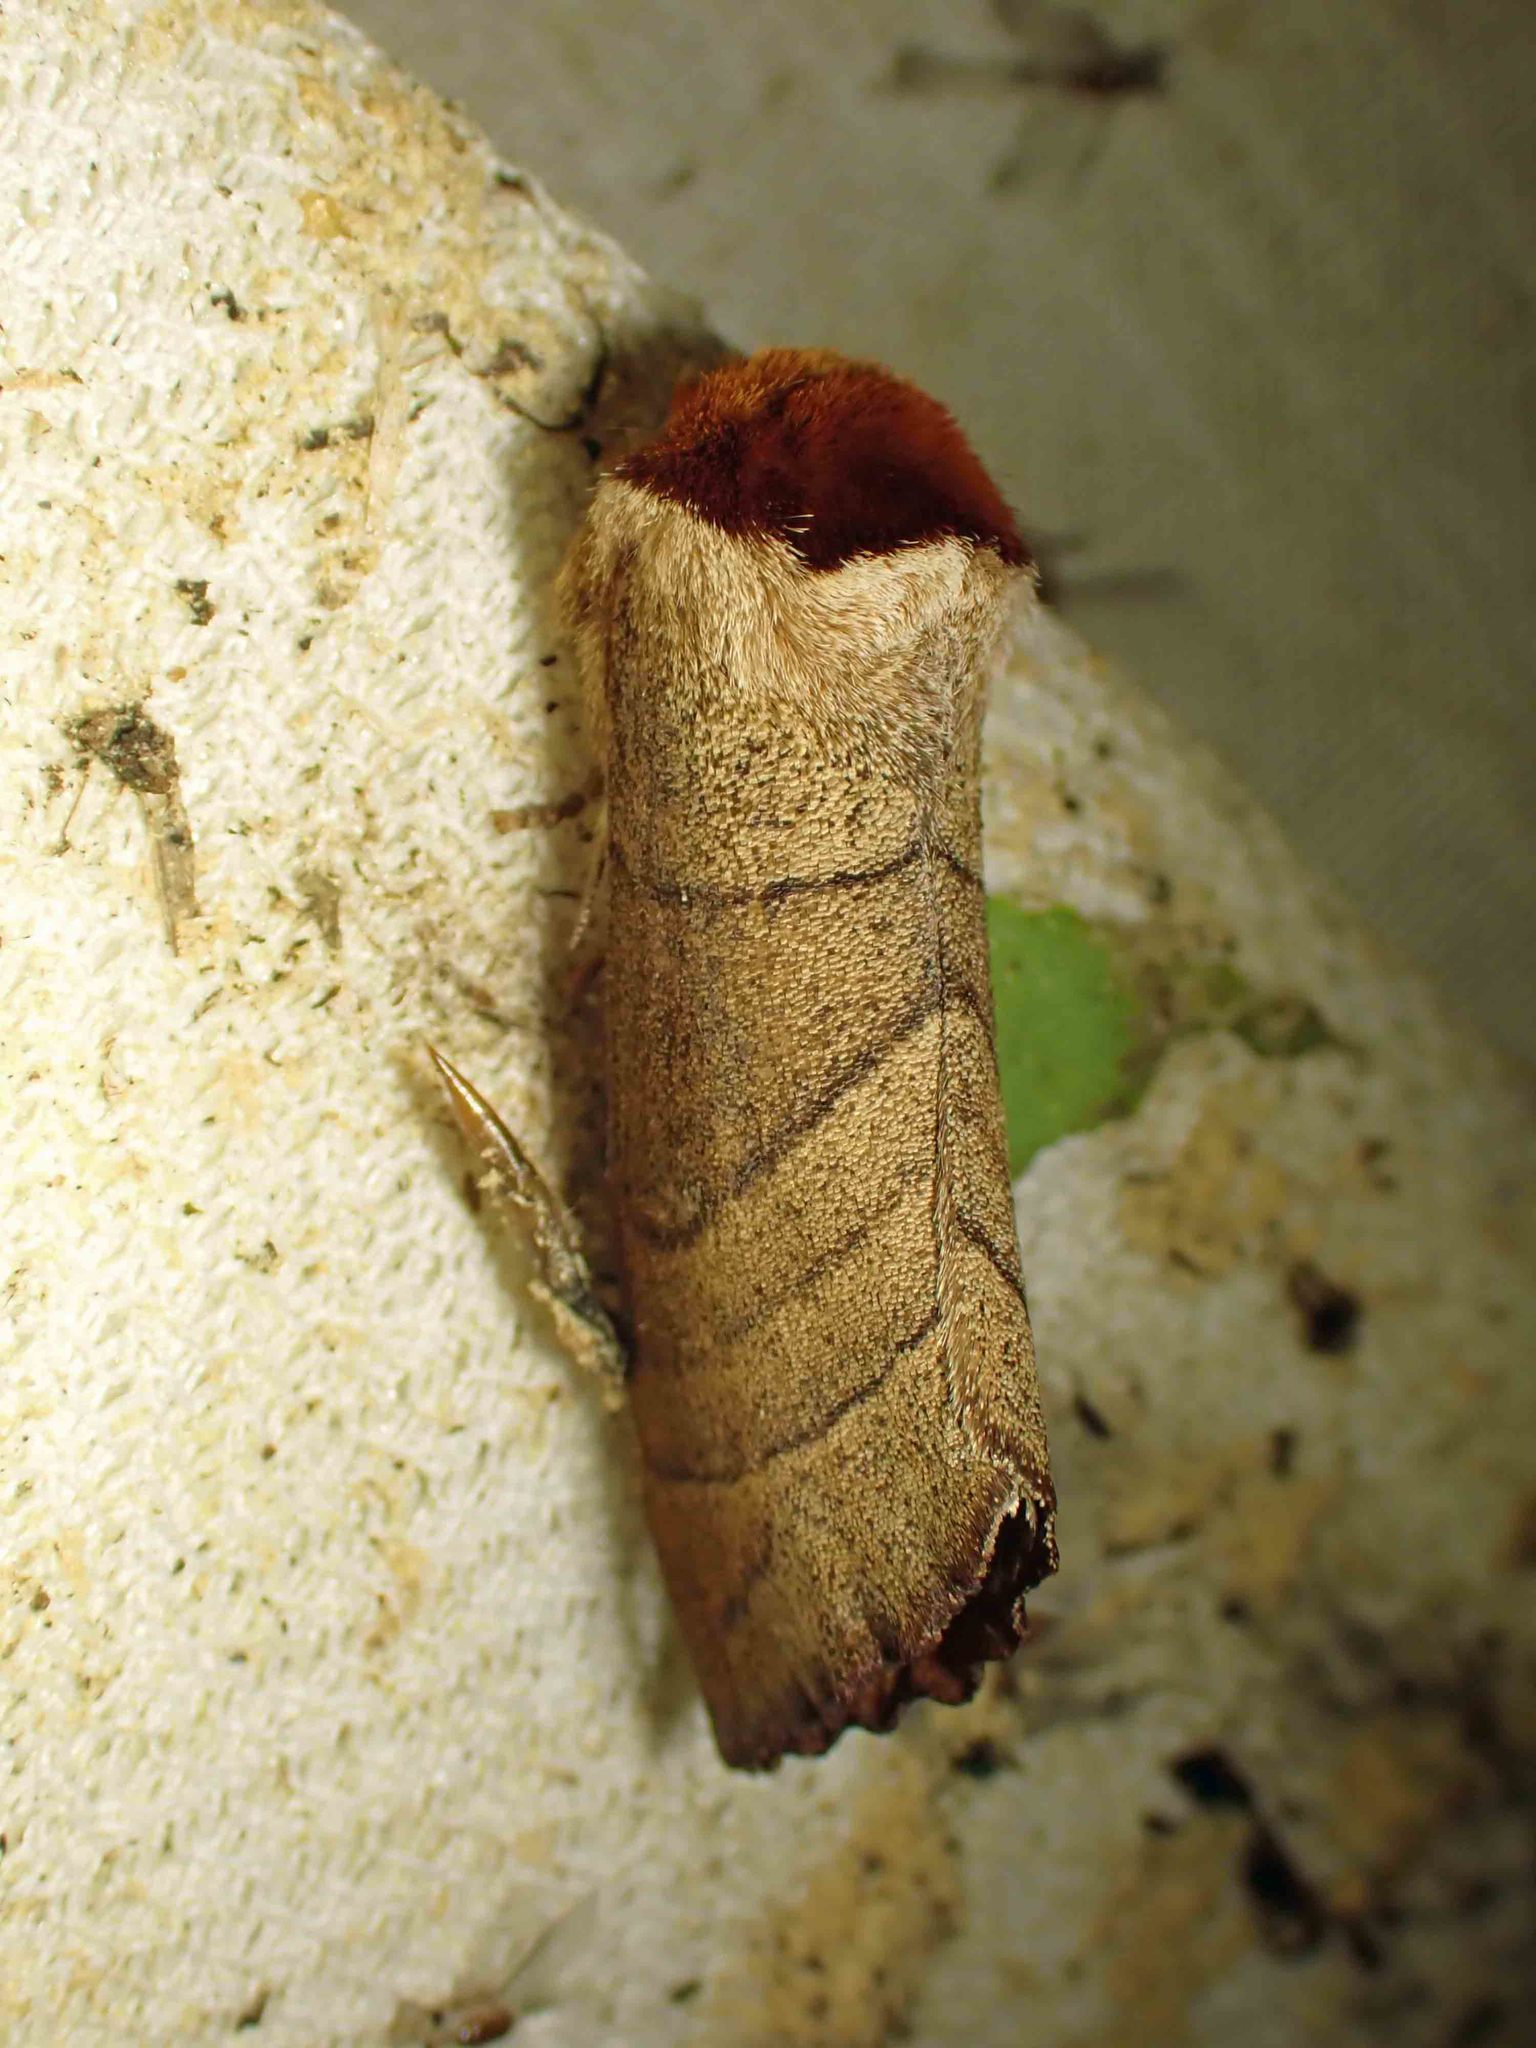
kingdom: Animalia
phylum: Arthropoda
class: Insecta
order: Lepidoptera
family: Notodontidae
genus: Datana
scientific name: Datana ministra
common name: Yellow-necked caterpillar moth
